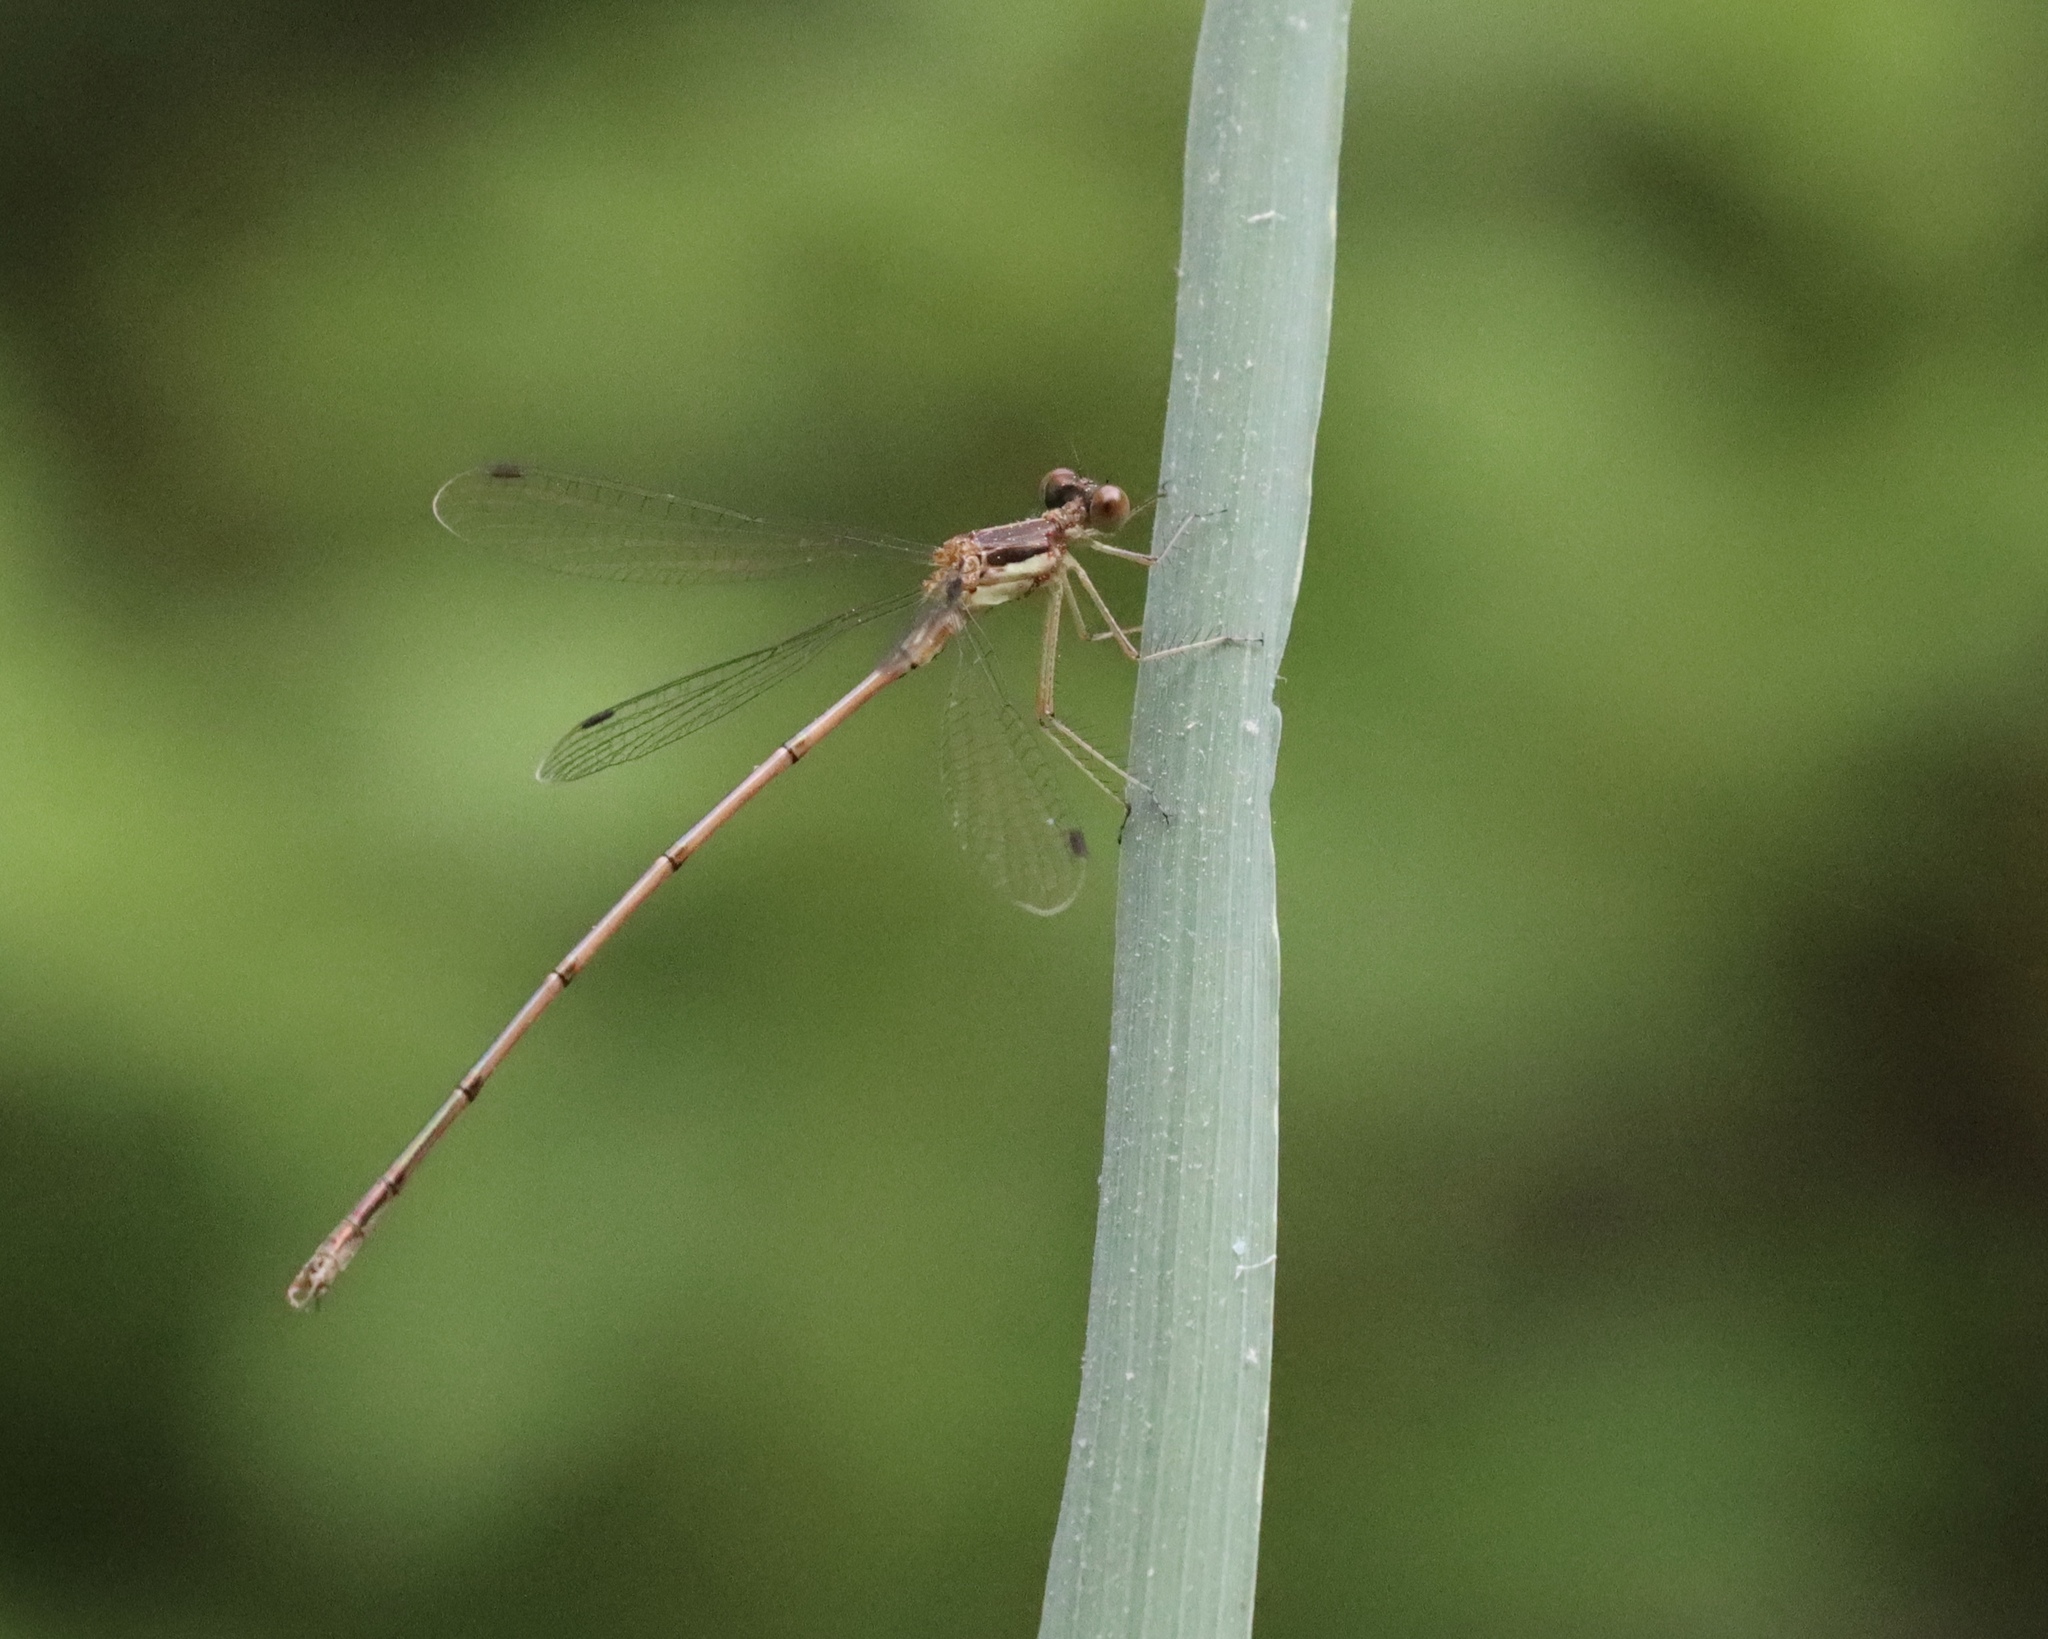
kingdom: Animalia
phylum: Arthropoda
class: Insecta
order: Odonata
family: Lestidae
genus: Lestes
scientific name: Lestes rectangularis
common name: Slender spreadwing
